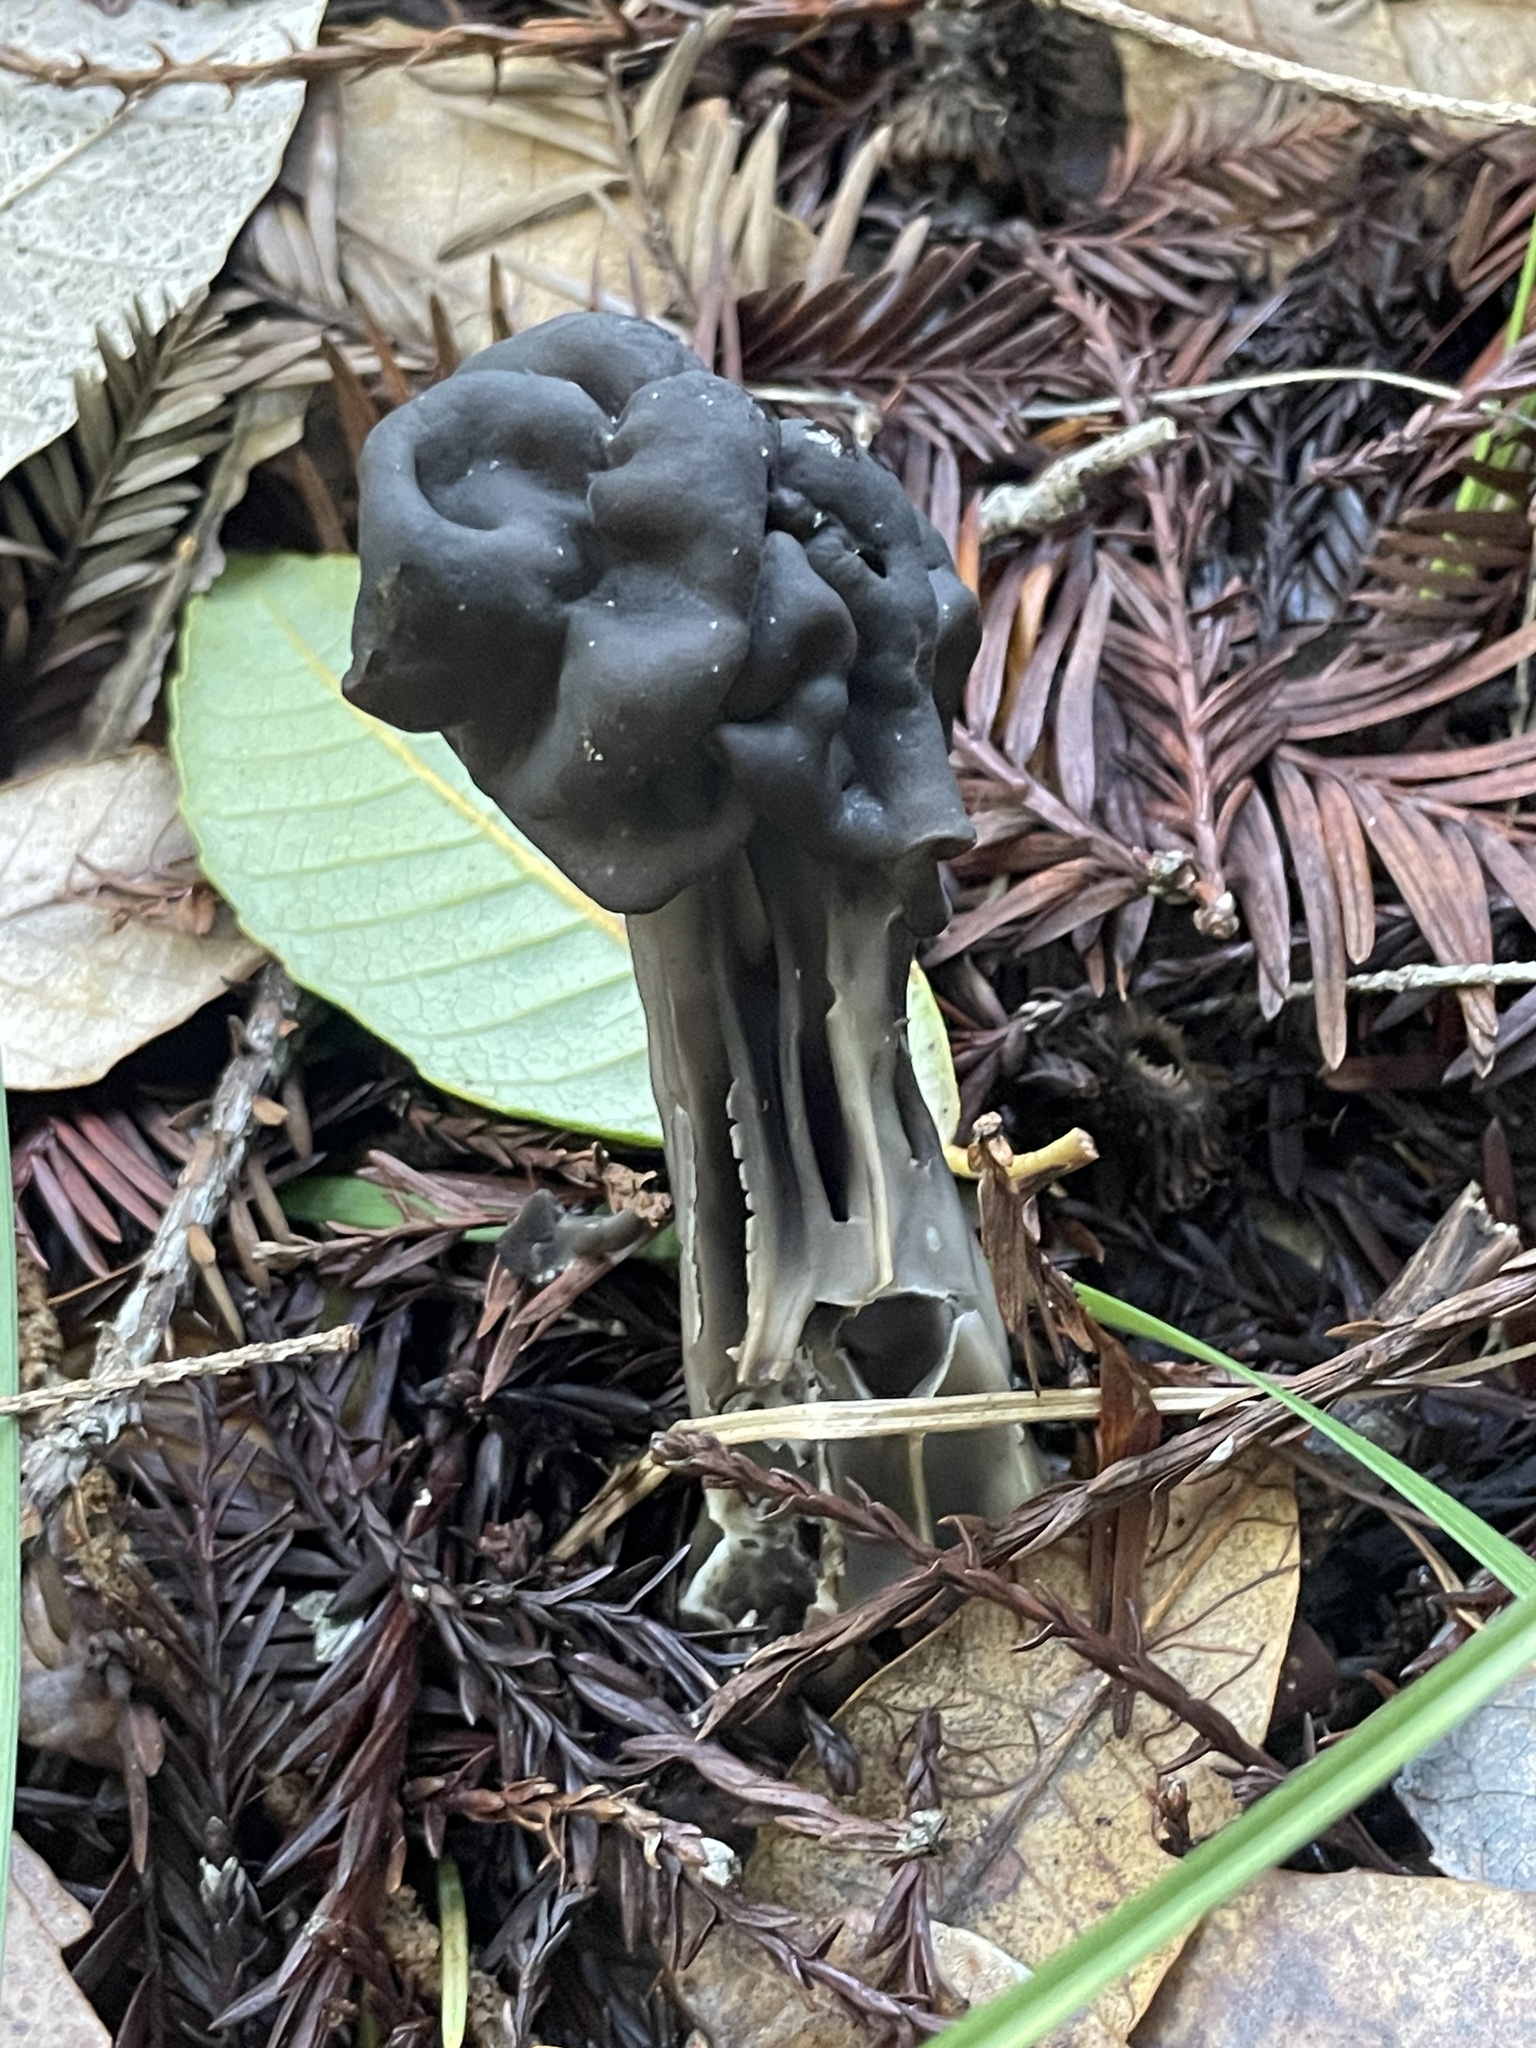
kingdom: Fungi
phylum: Ascomycota
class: Pezizomycetes
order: Pezizales
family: Helvellaceae
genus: Helvella
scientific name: Helvella vespertina
